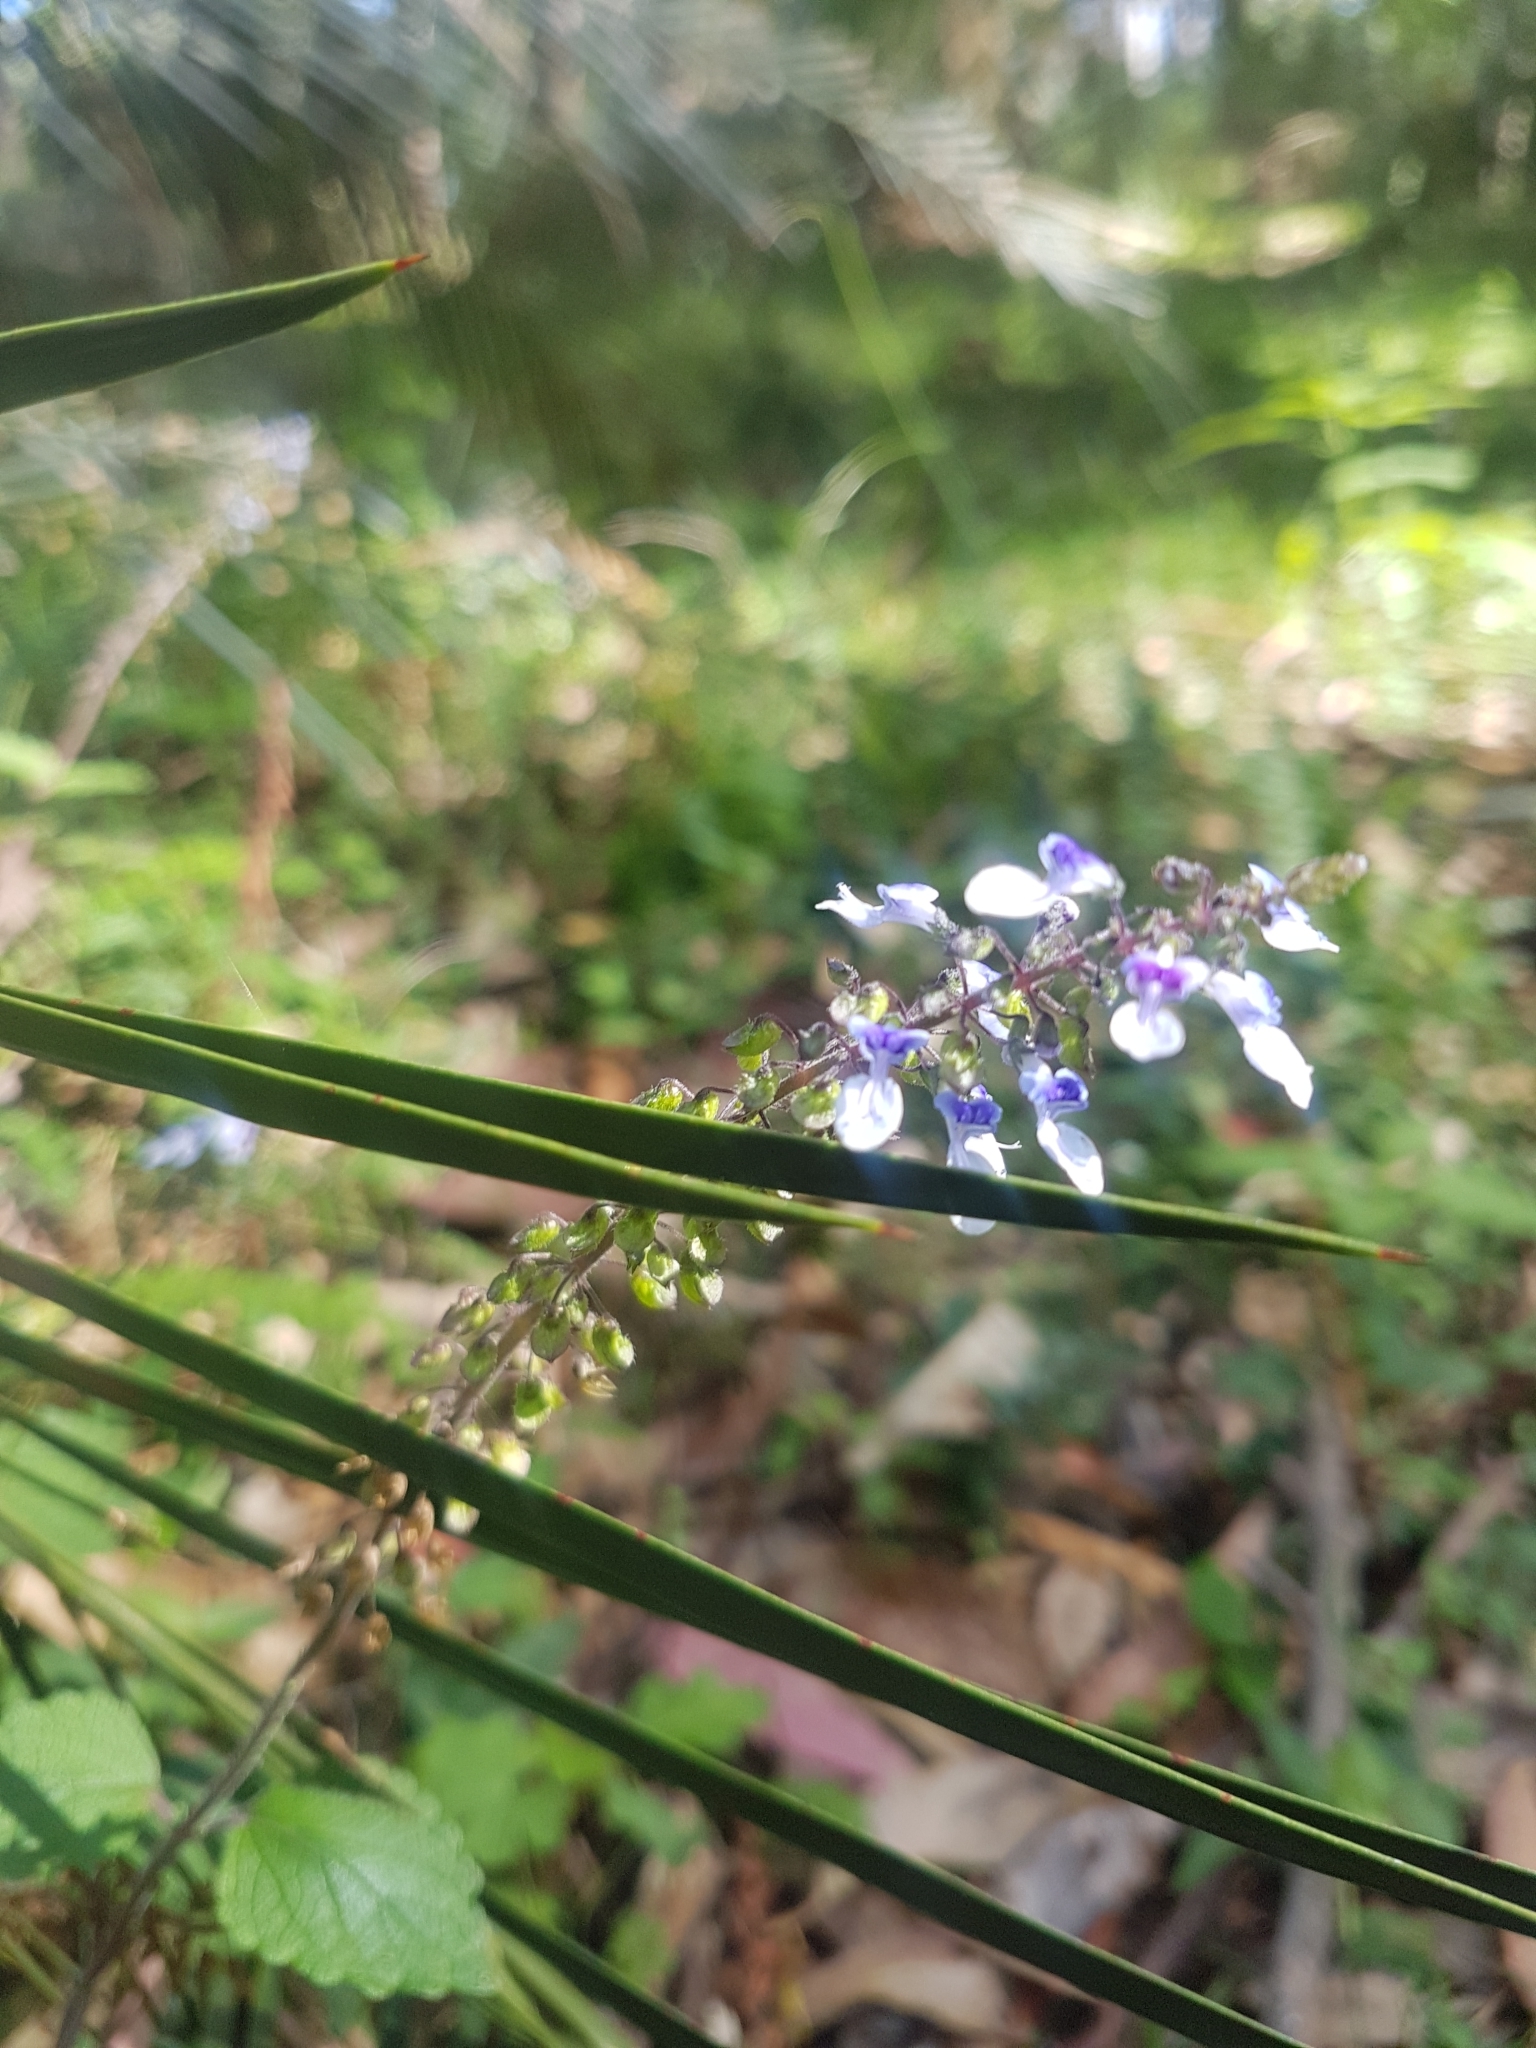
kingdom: Plantae
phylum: Tracheophyta
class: Magnoliopsida
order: Lamiales
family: Lamiaceae
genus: Coleus
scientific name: Coleus australis
